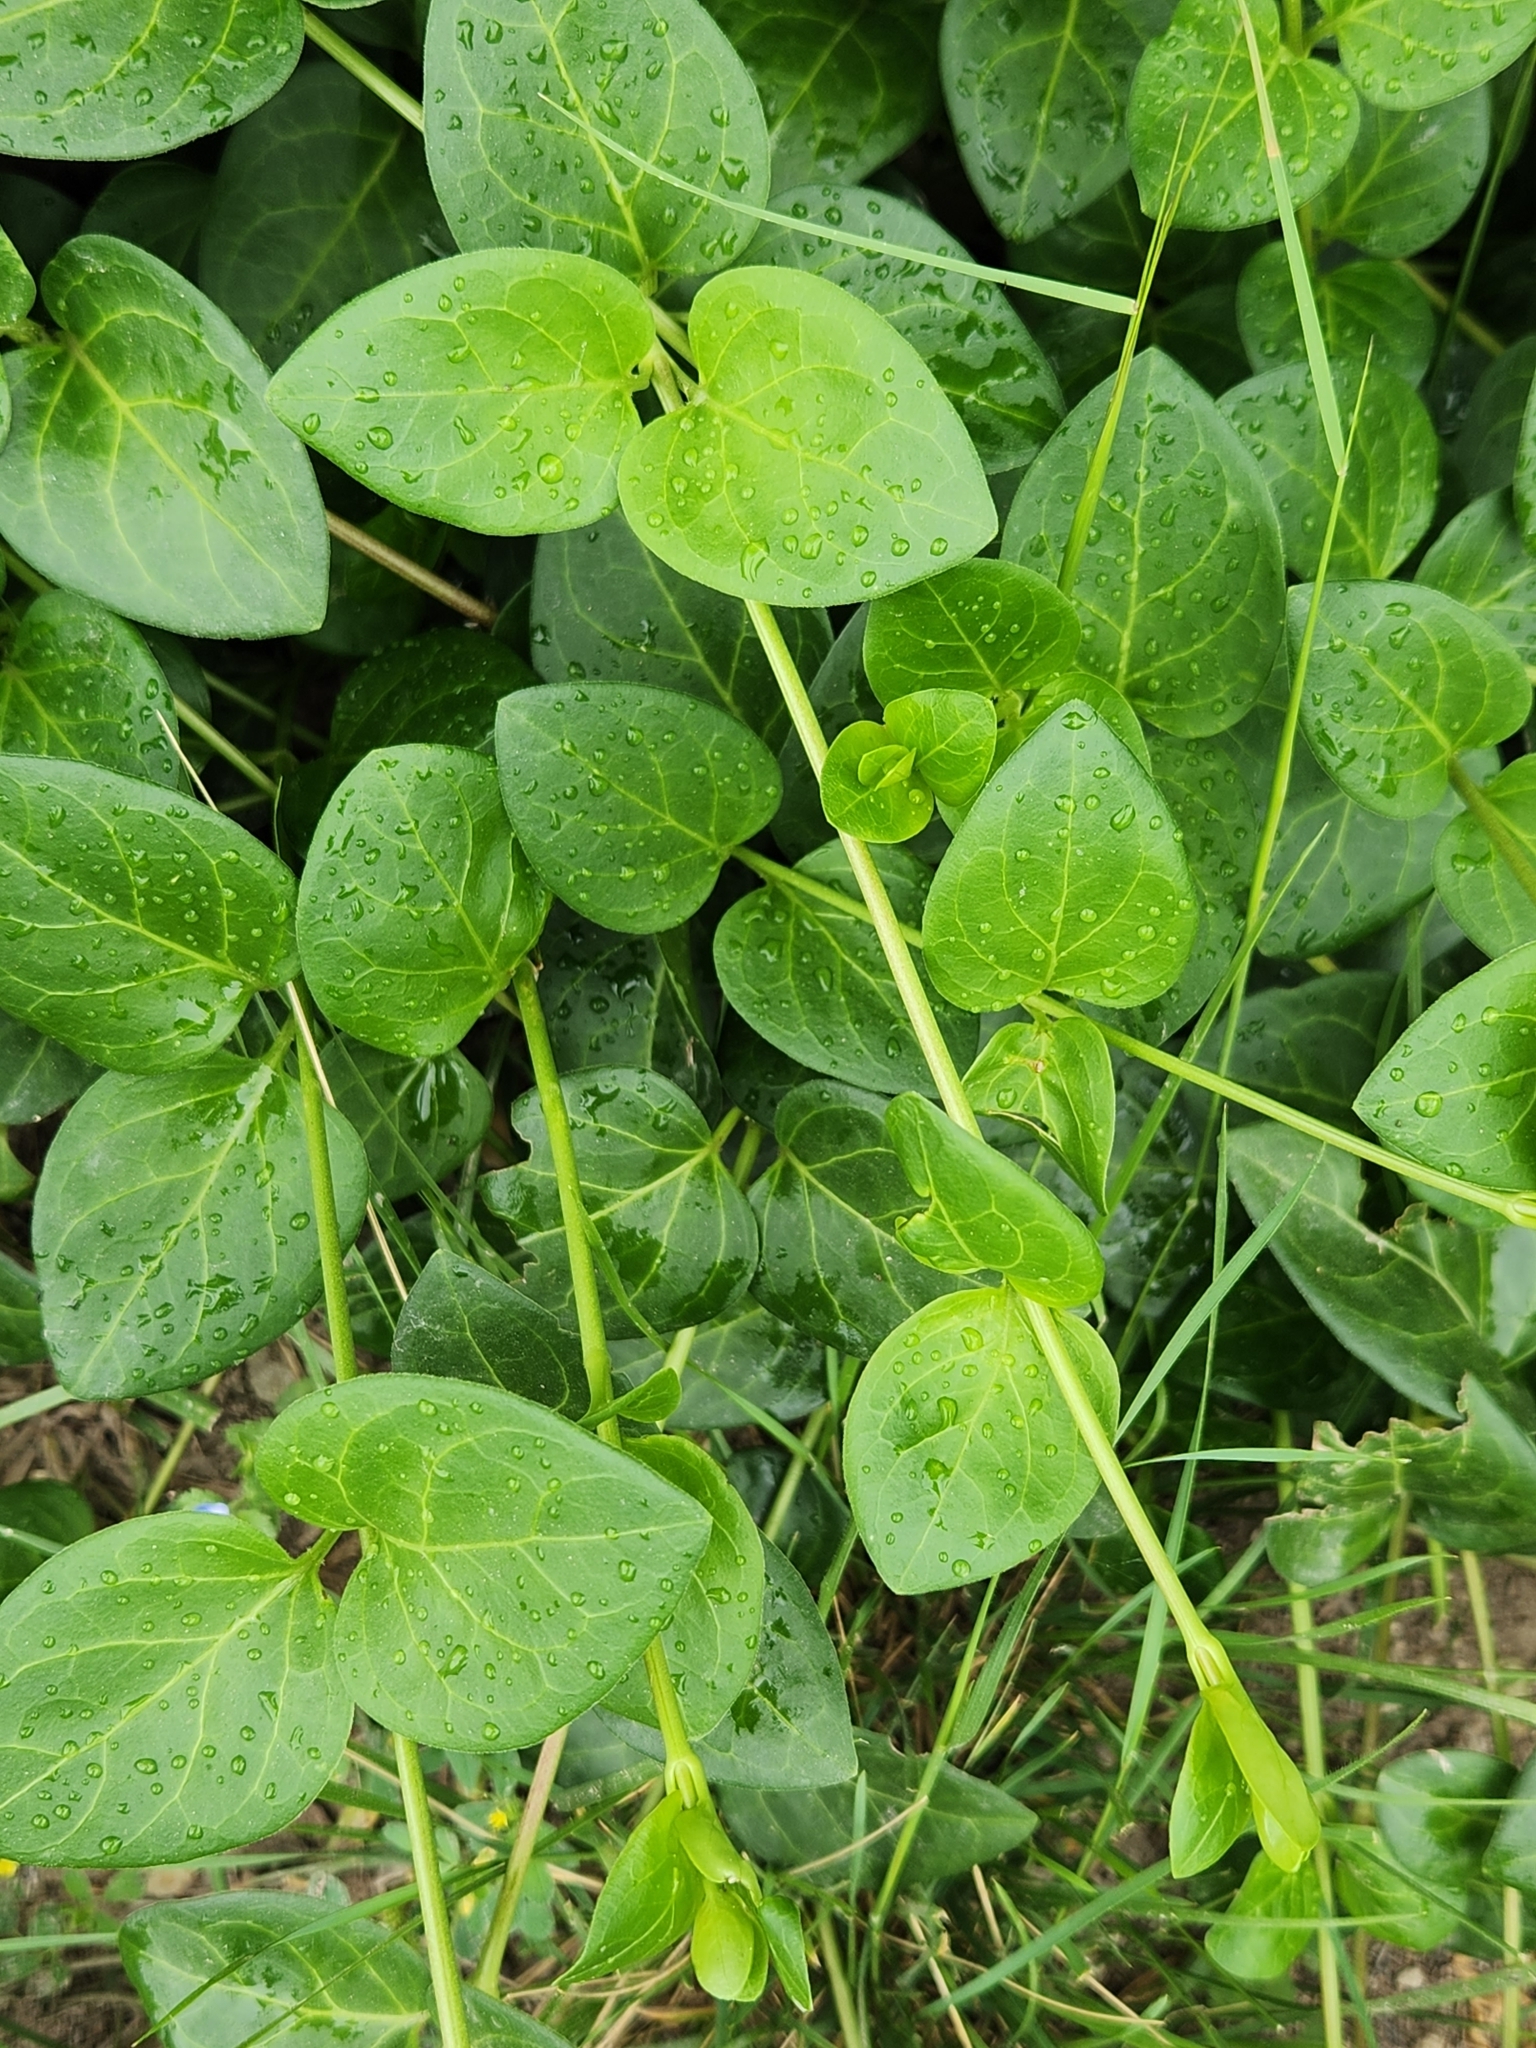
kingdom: Plantae
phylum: Tracheophyta
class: Magnoliopsida
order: Gentianales
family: Apocynaceae
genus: Vinca
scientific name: Vinca major
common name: Greater periwinkle
